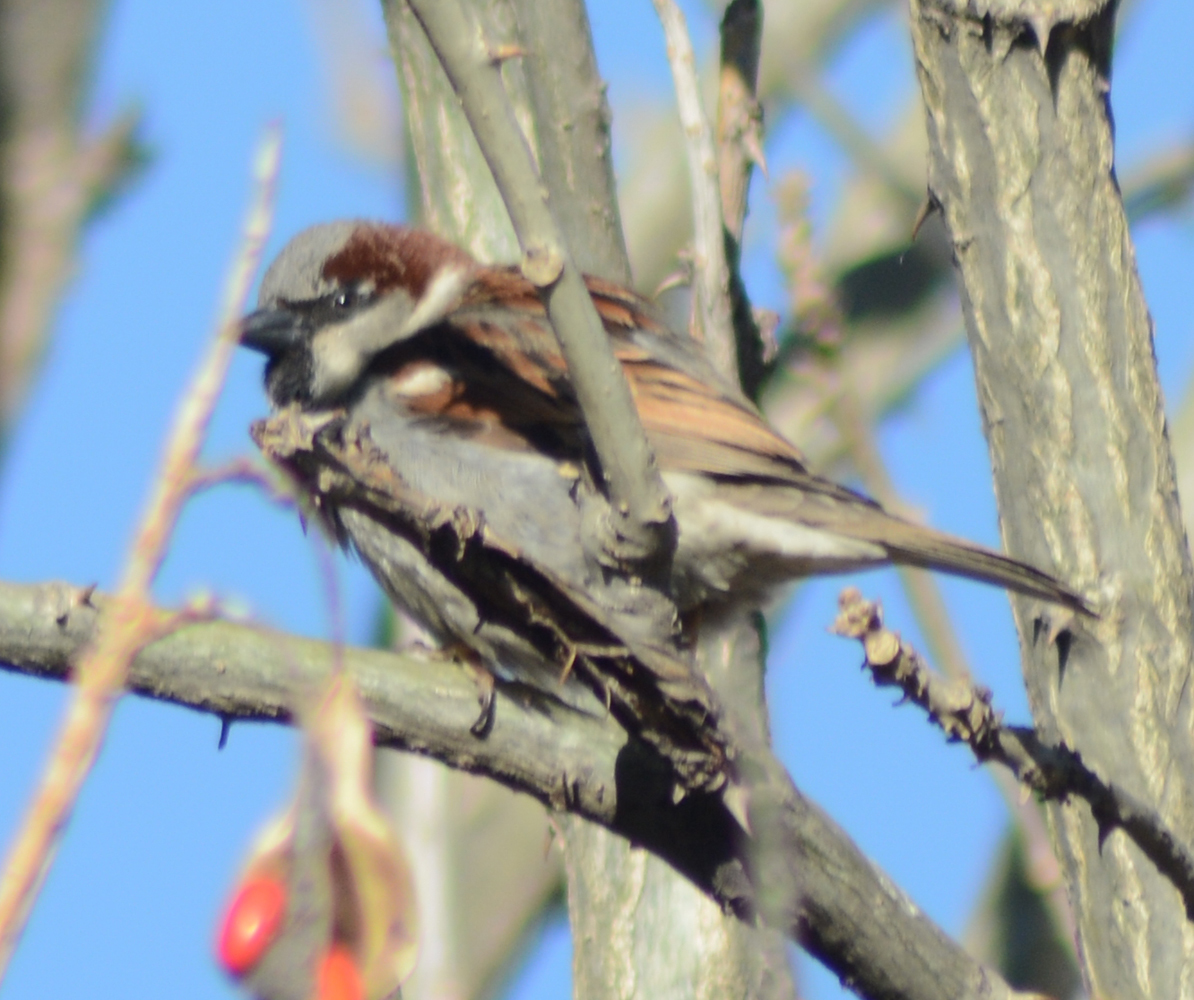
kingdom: Animalia
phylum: Chordata
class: Aves
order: Passeriformes
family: Passeridae
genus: Passer
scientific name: Passer domesticus
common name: House sparrow
